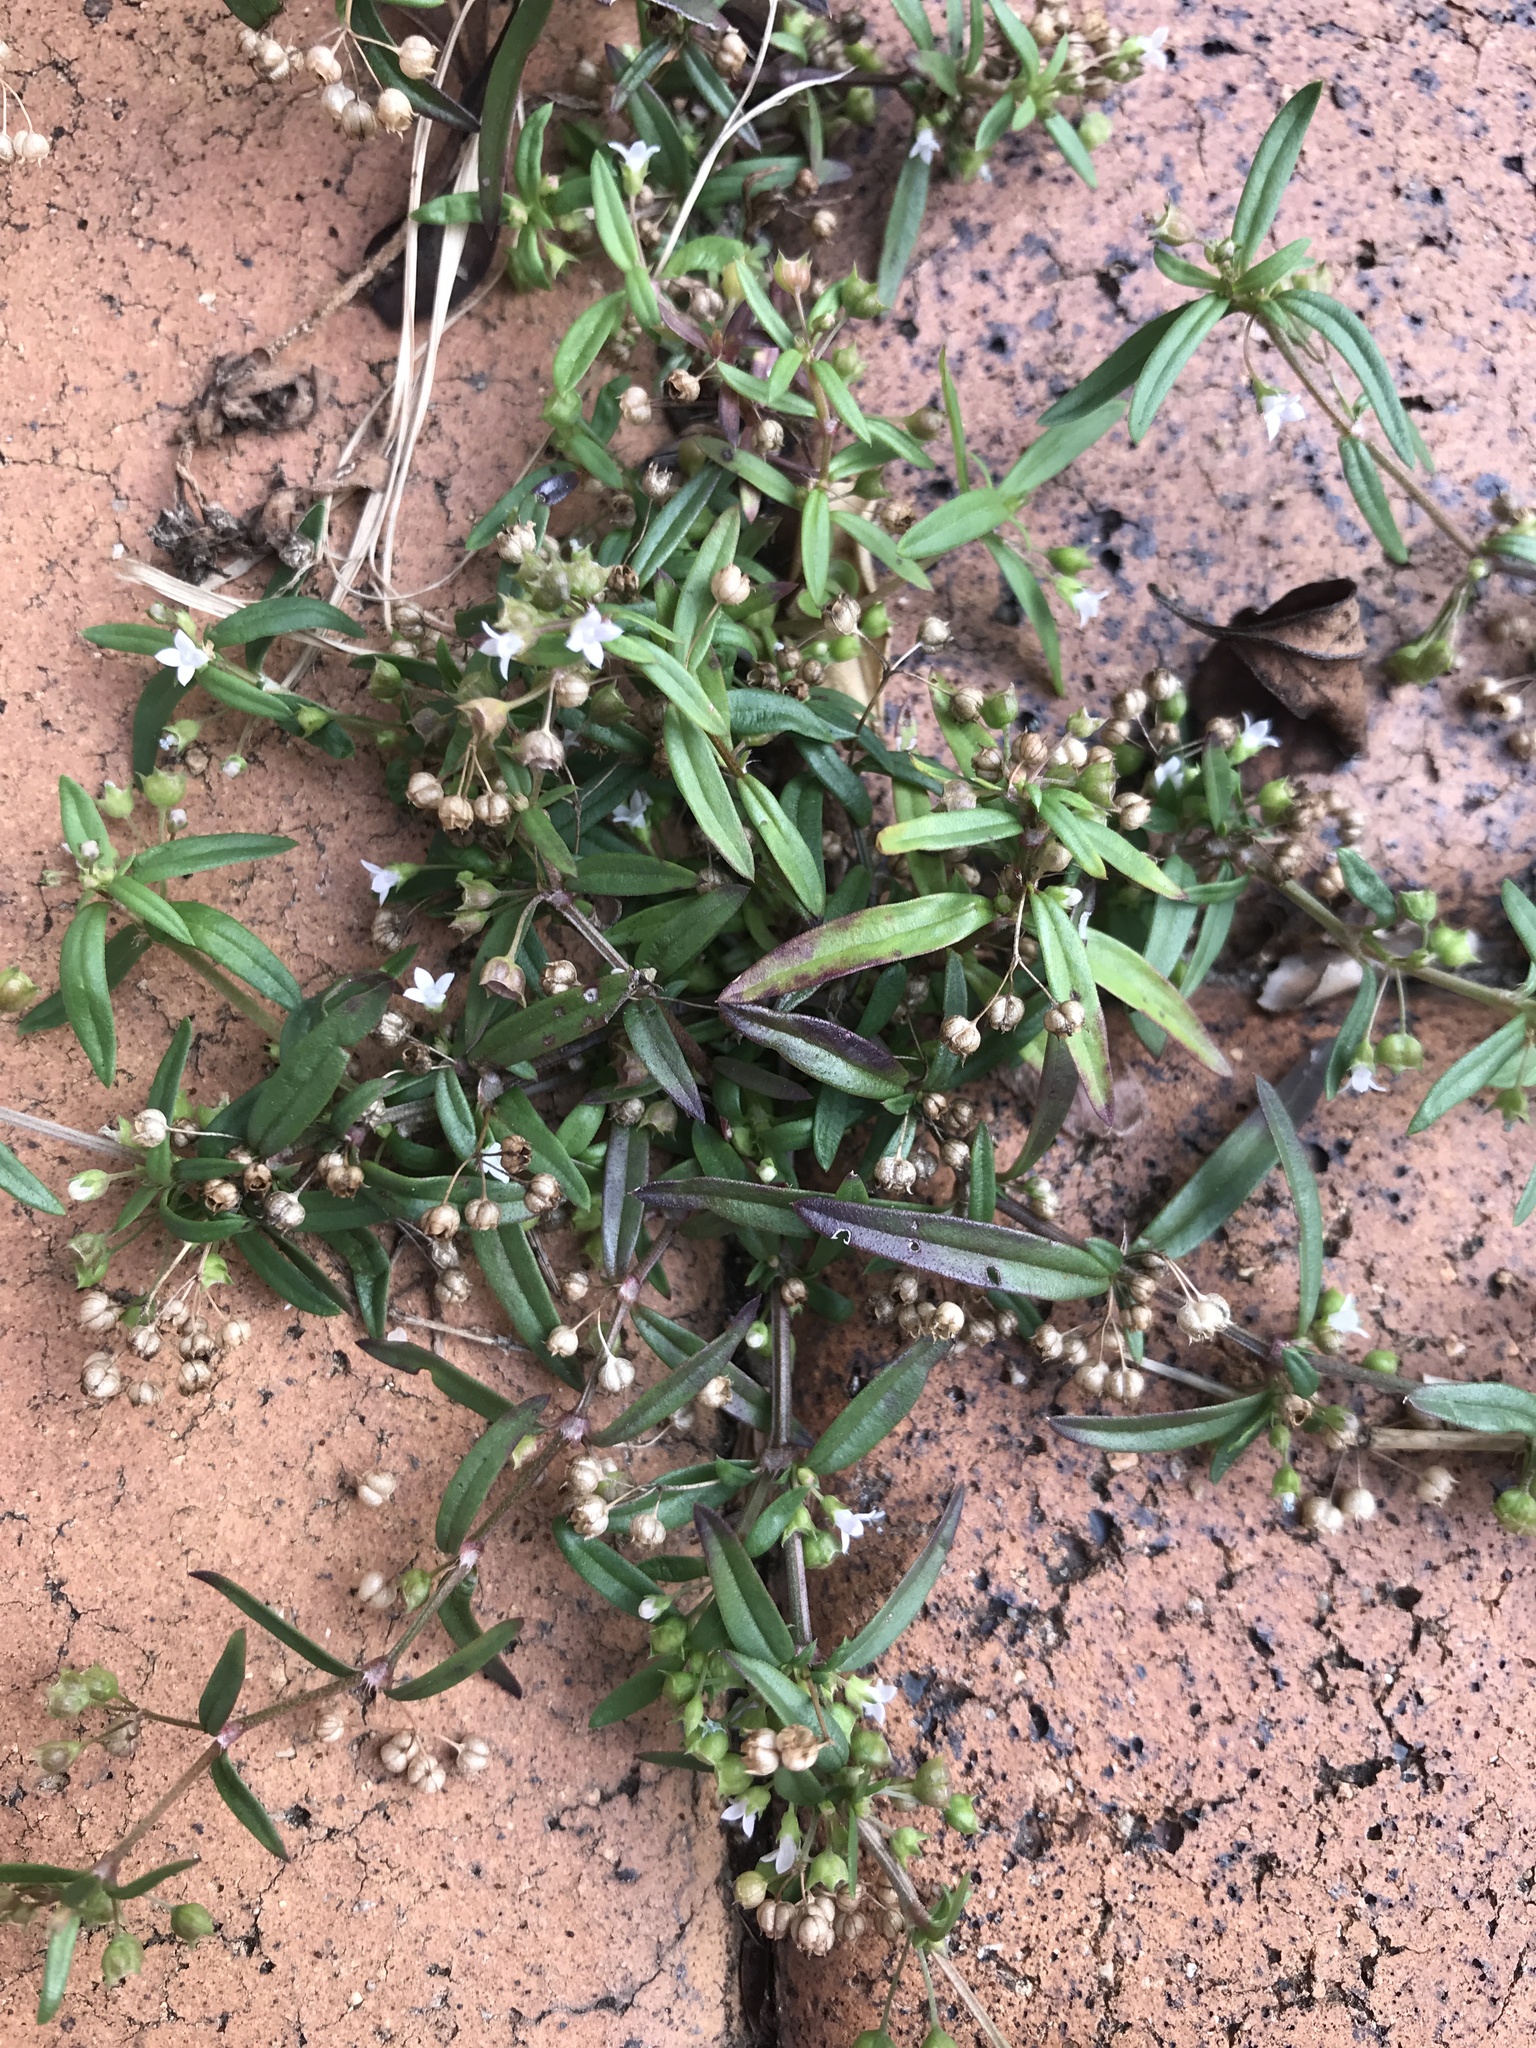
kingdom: Plantae
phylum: Tracheophyta
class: Magnoliopsida
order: Gentianales
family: Rubiaceae
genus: Oldenlandia
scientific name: Oldenlandia corymbosa
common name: Flat-top mille graines
